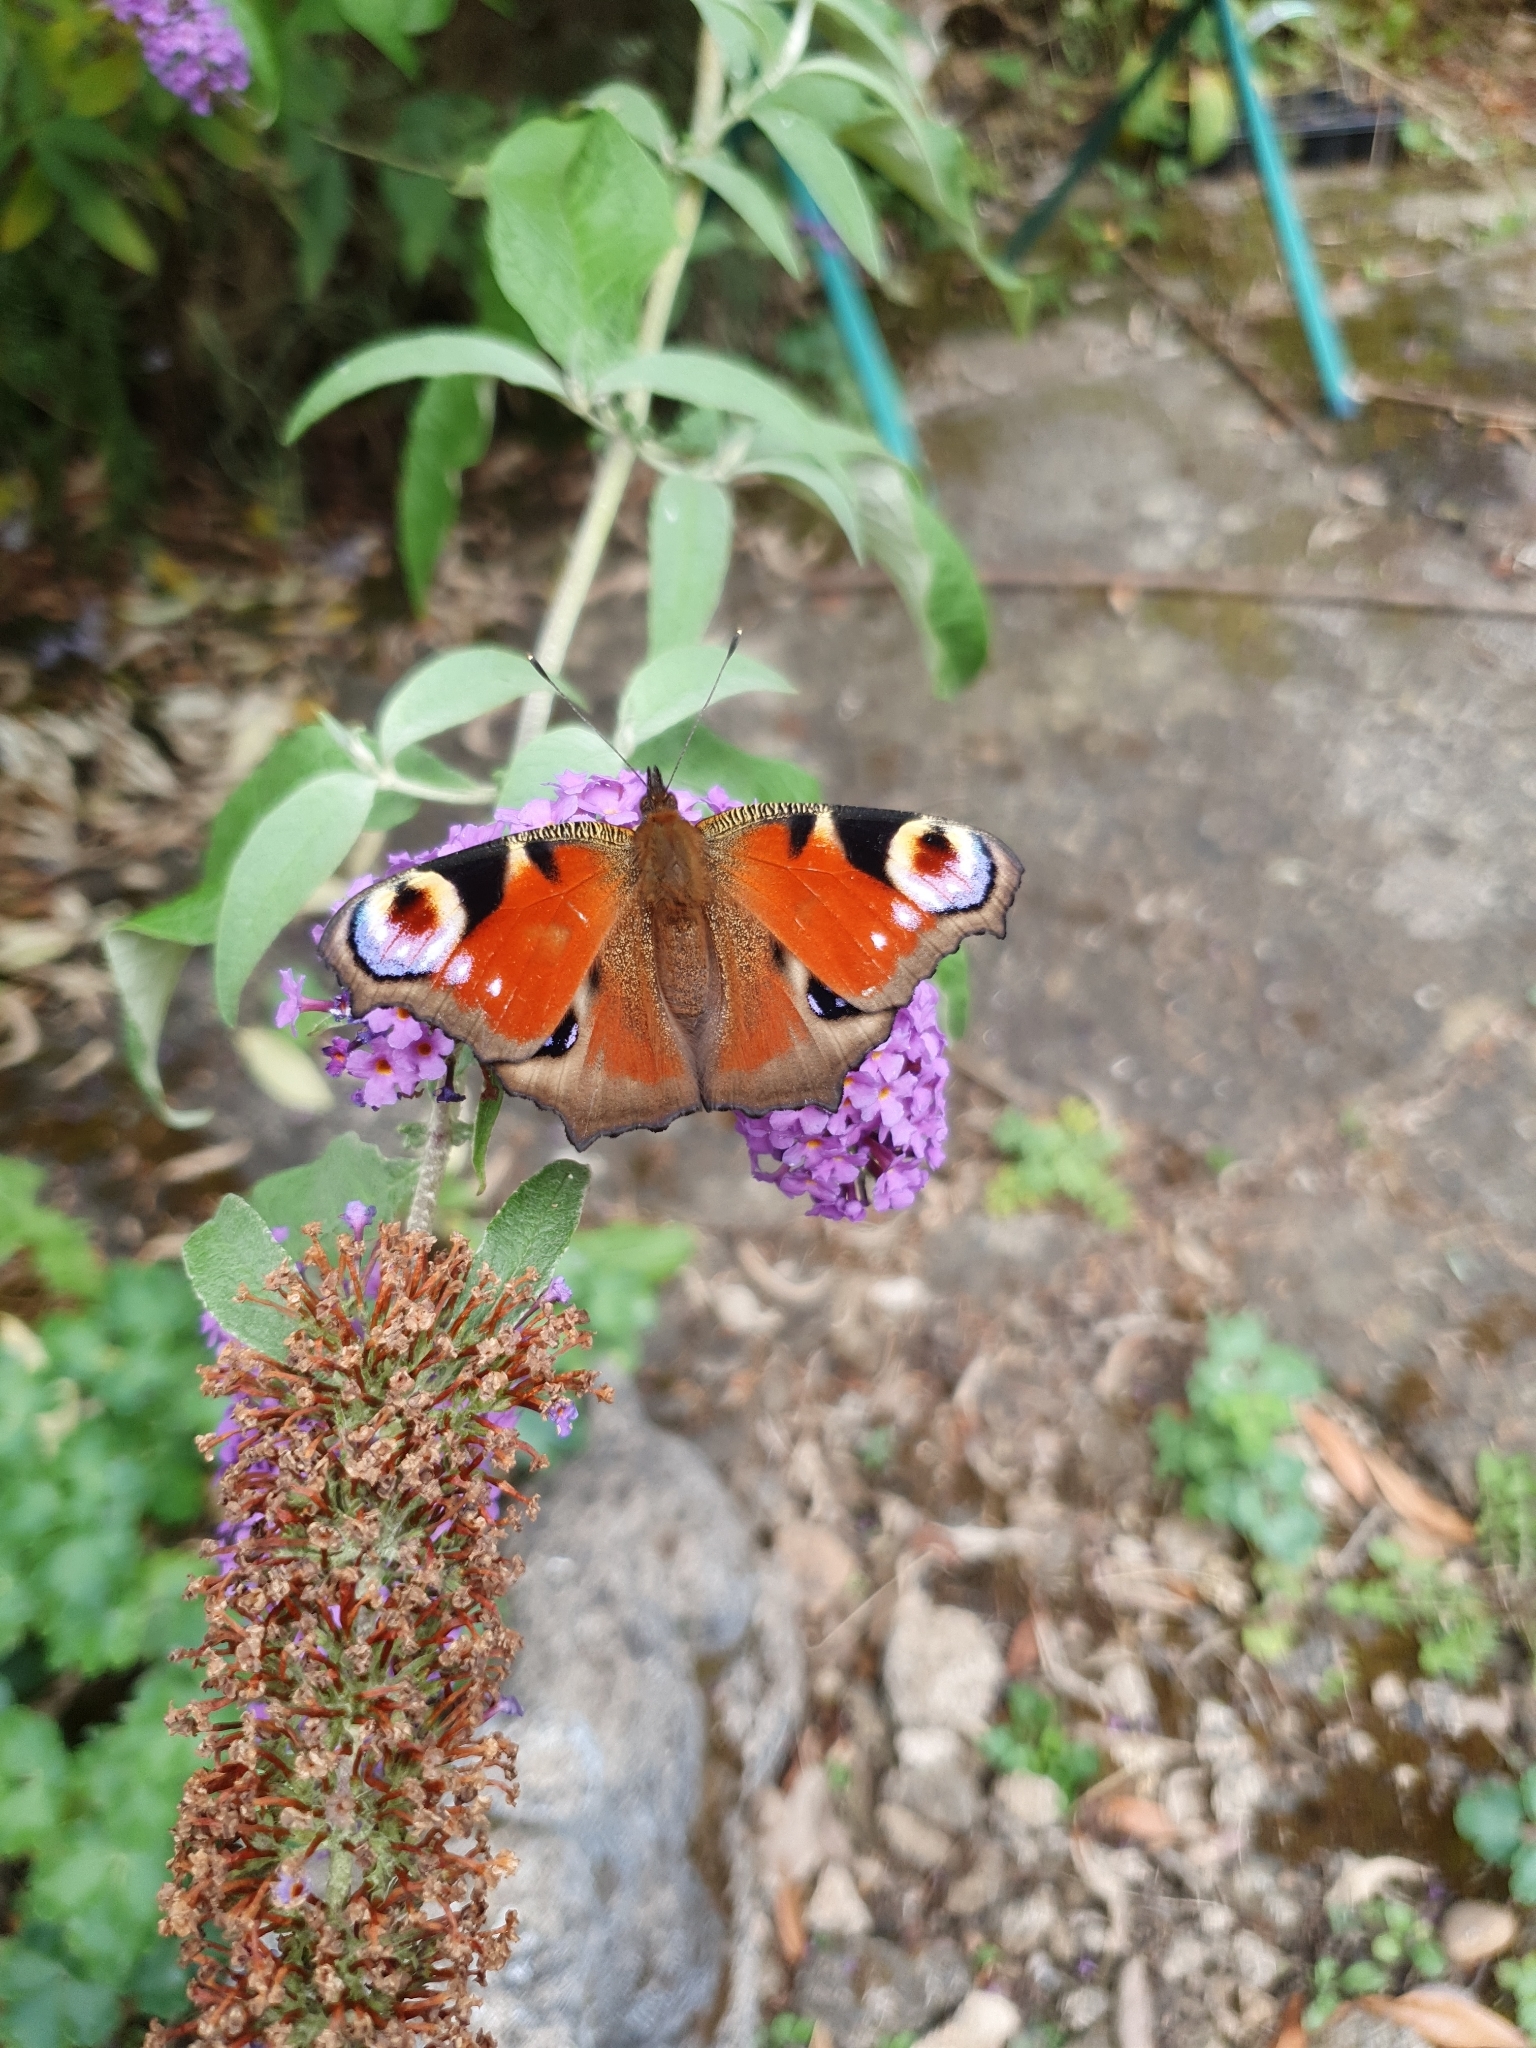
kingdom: Animalia
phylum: Arthropoda
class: Insecta
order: Lepidoptera
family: Nymphalidae
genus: Aglais
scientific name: Aglais io
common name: Peacock
